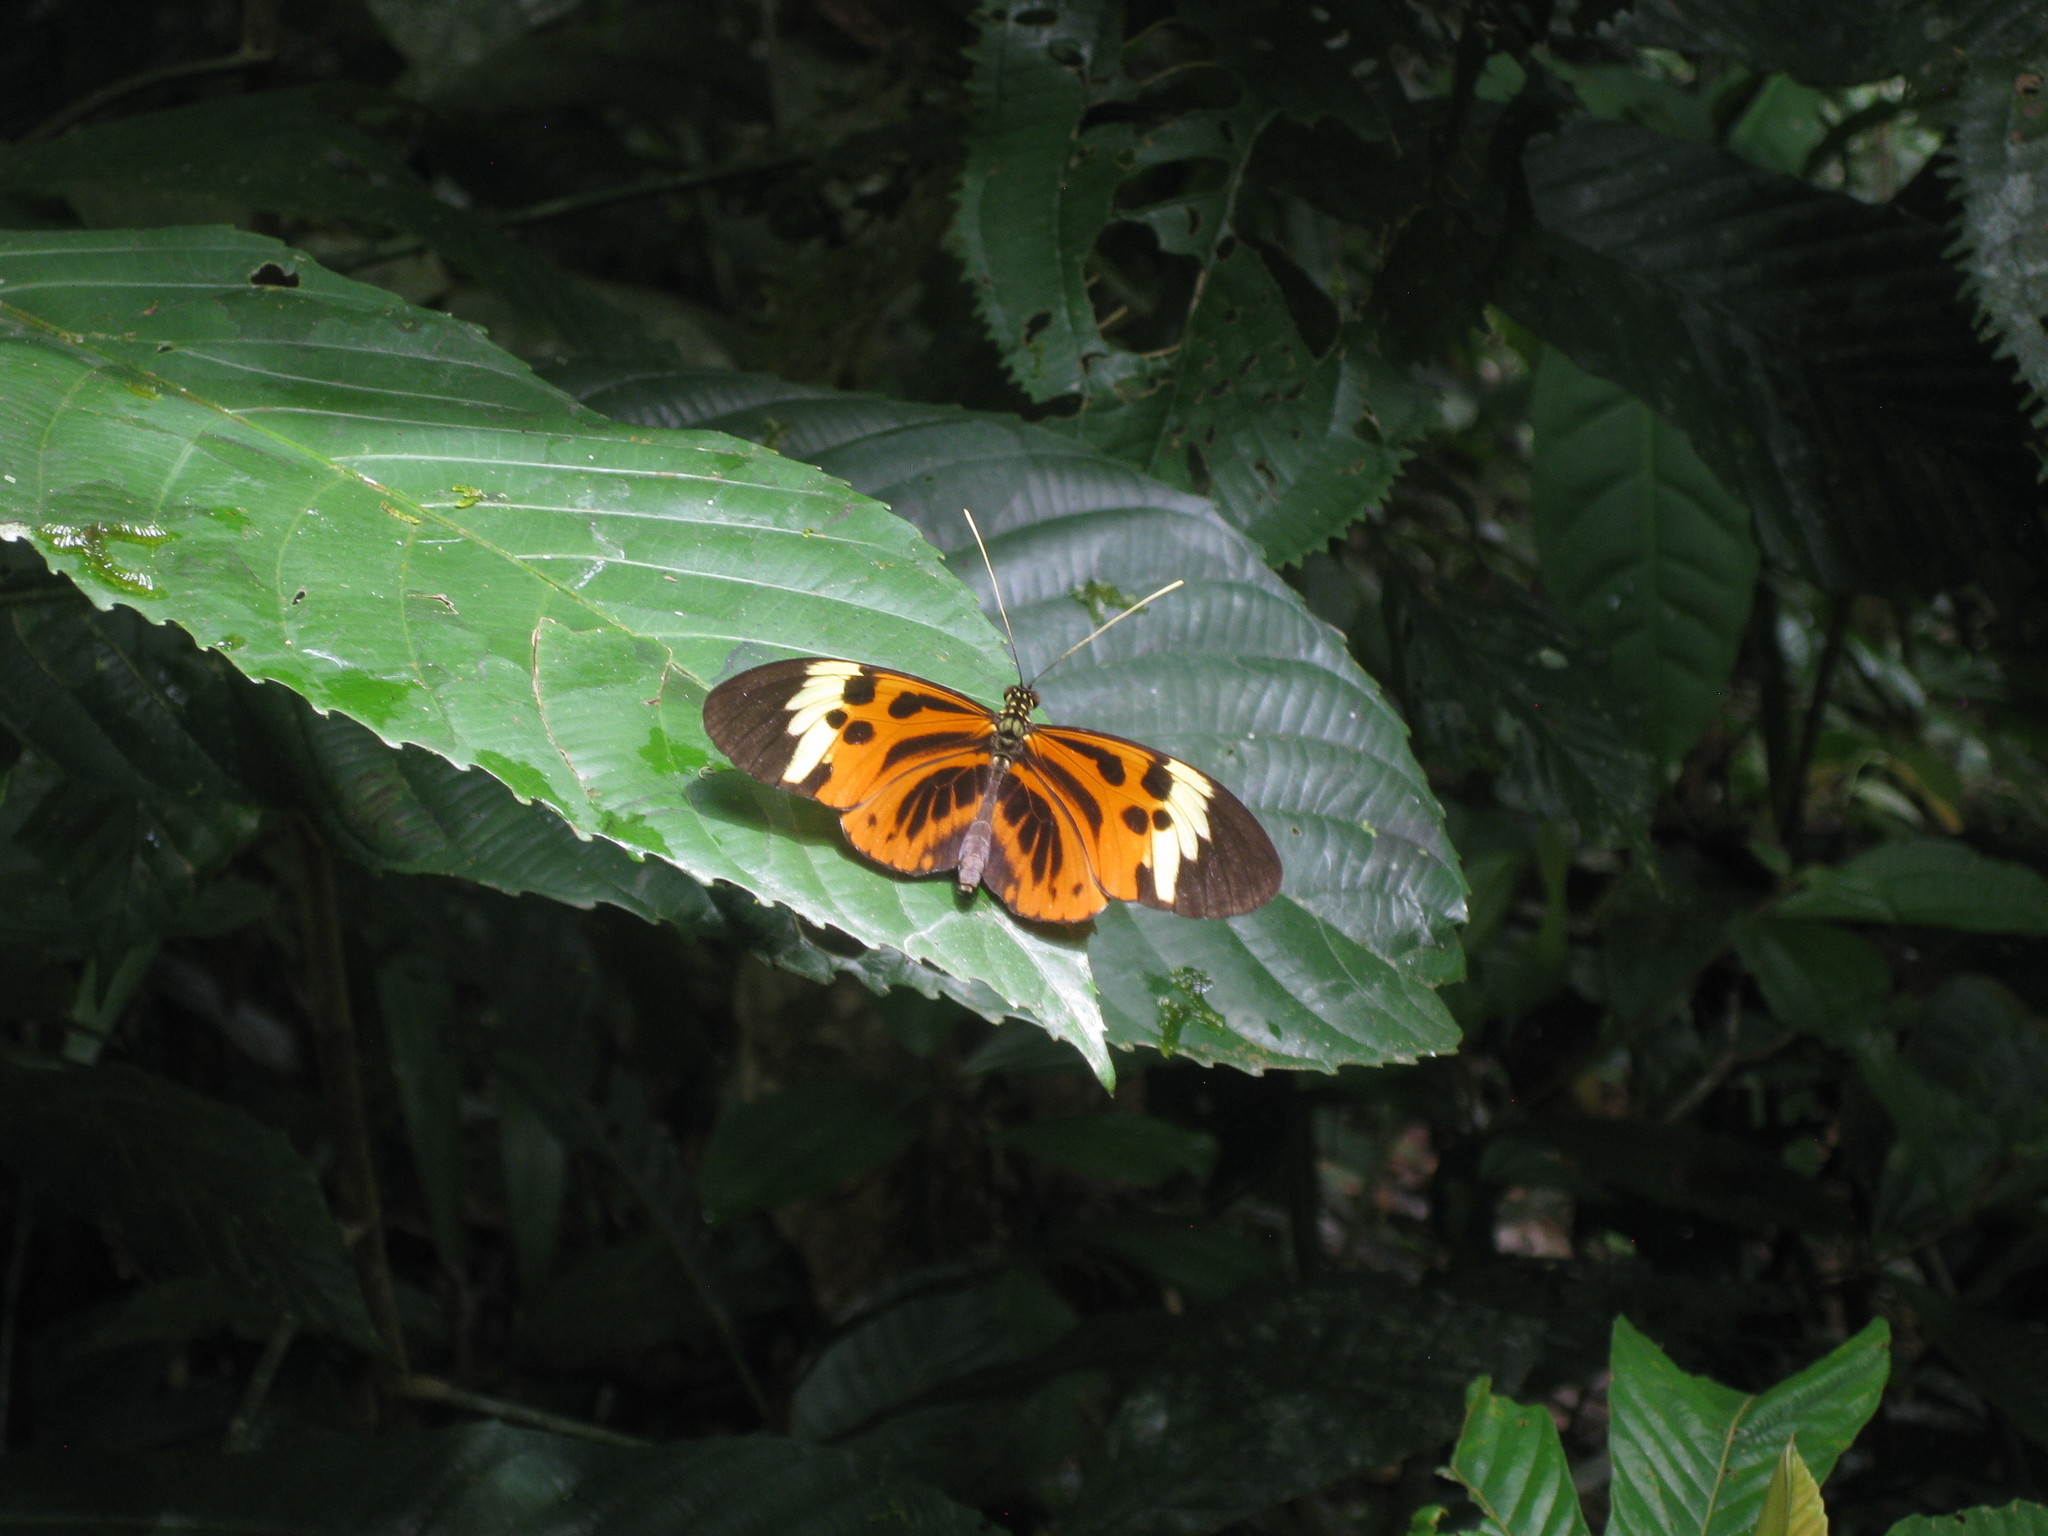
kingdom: Animalia
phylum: Arthropoda
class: Insecta
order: Lepidoptera
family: Nymphalidae
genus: Heliconius
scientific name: Heliconius numatus
